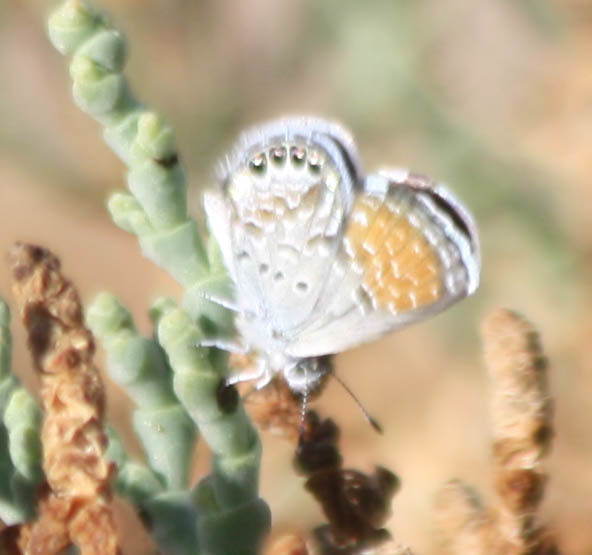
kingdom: Animalia
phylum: Arthropoda
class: Insecta
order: Lepidoptera
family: Lycaenidae
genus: Brephidium
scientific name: Brephidium exilis
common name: Pygmy blue
